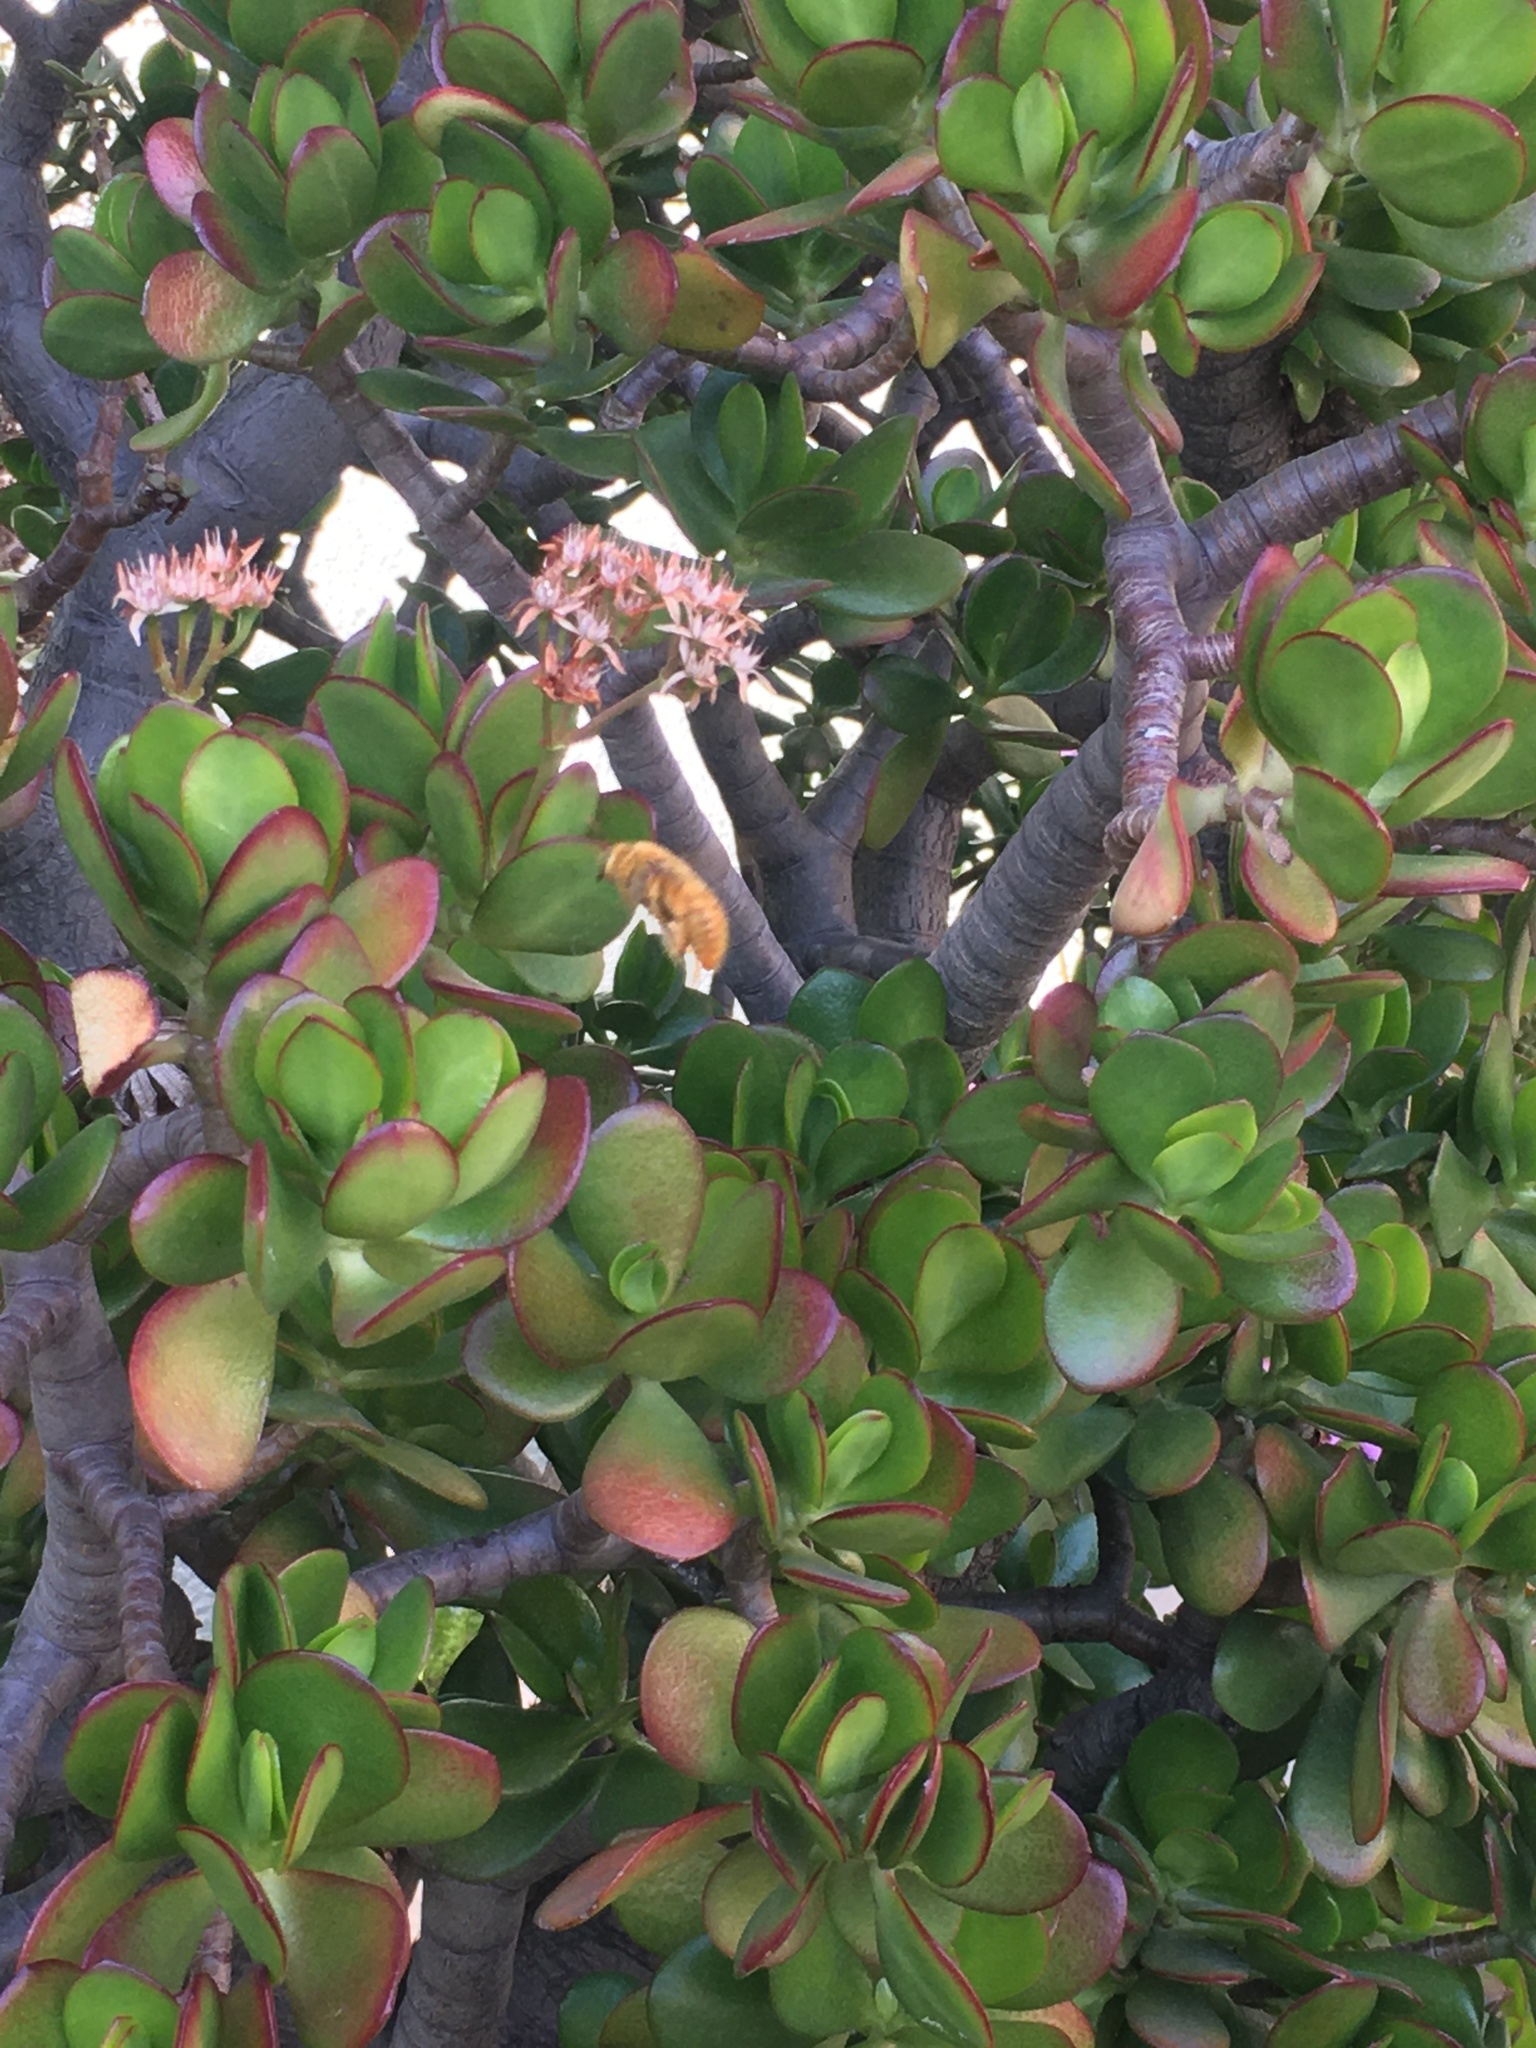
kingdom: Animalia
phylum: Arthropoda
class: Insecta
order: Hymenoptera
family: Apidae
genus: Xylocopa
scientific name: Xylocopa sonorina
